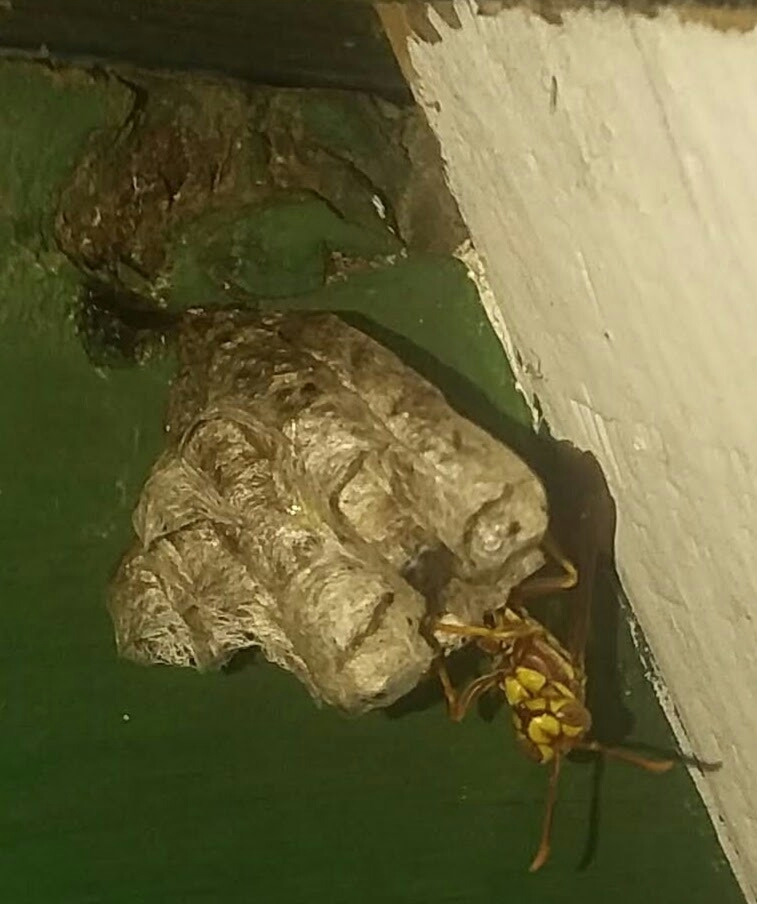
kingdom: Animalia
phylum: Arthropoda
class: Insecta
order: Hymenoptera
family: Eumenidae
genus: Polistes
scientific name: Polistes exclamans
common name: Paper wasp
